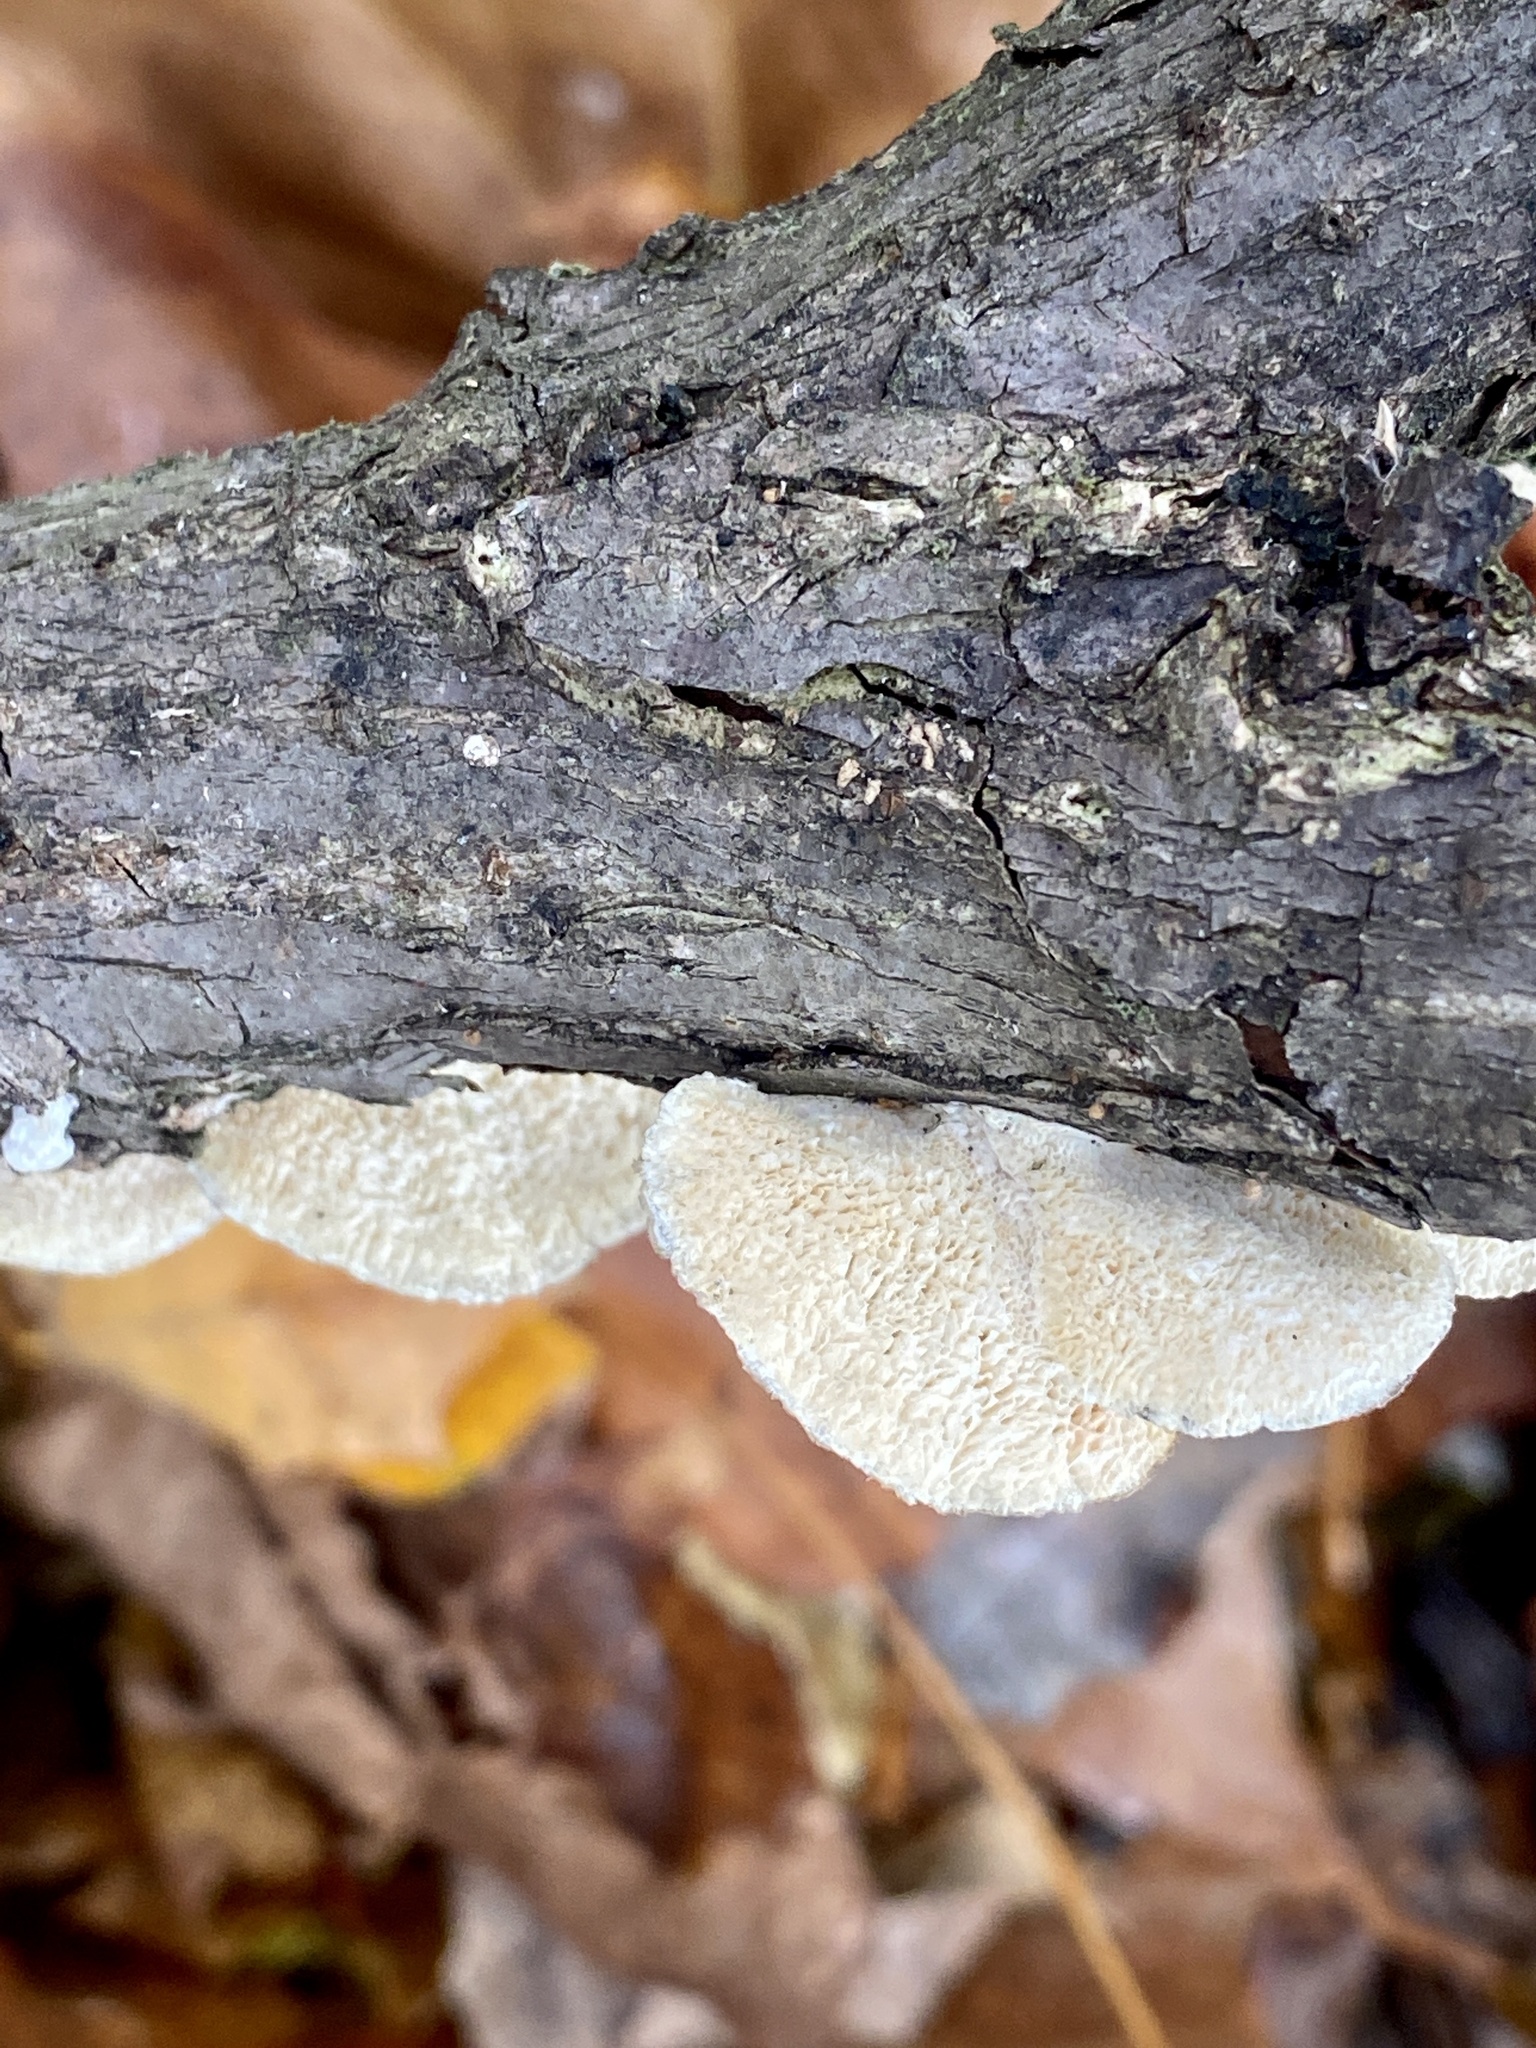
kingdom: Fungi
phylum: Basidiomycota
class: Agaricomycetes
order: Polyporales
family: Polyporaceae
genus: Poronidulus
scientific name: Poronidulus conchifer
